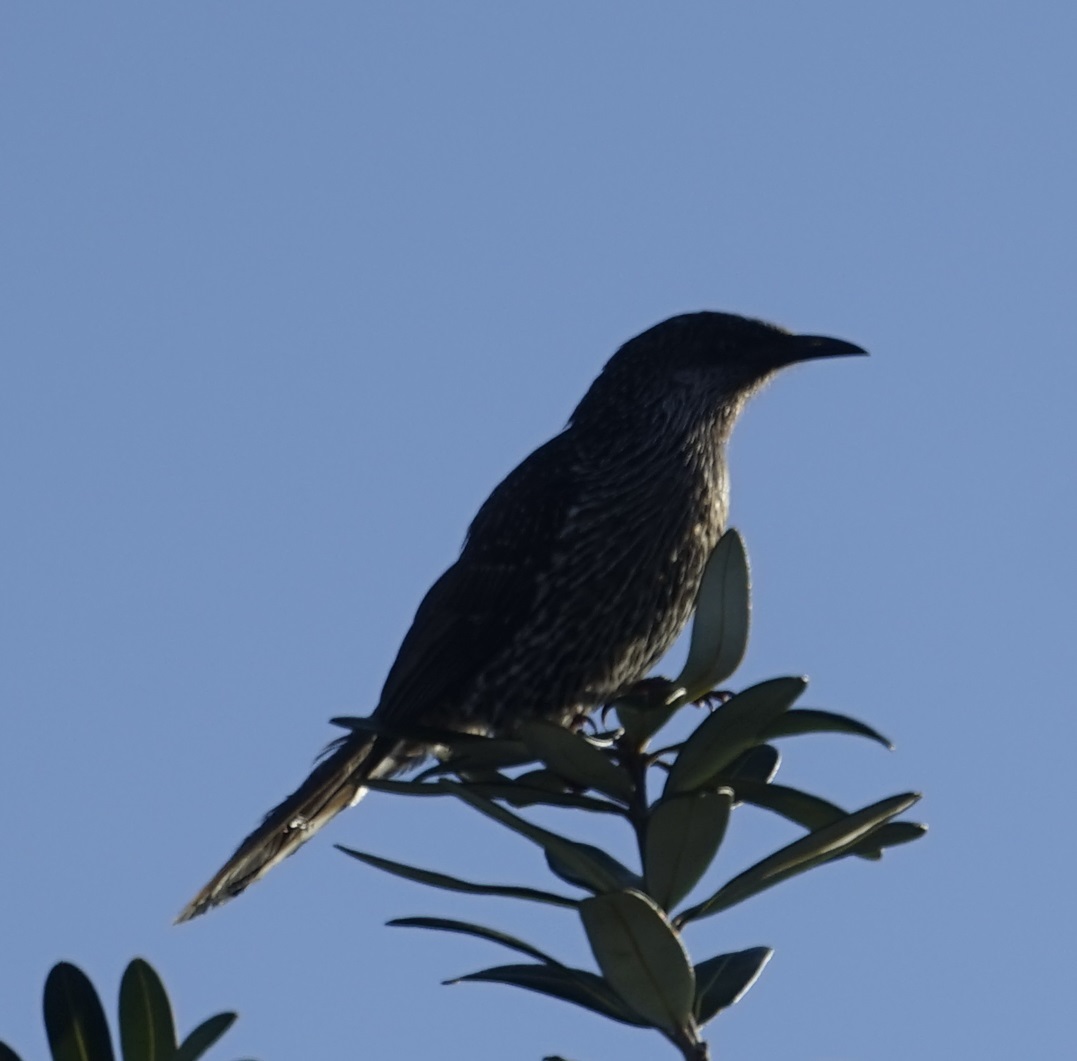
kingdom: Animalia
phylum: Chordata
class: Aves
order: Passeriformes
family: Meliphagidae
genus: Anthochaera
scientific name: Anthochaera chrysoptera
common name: Little wattlebird
